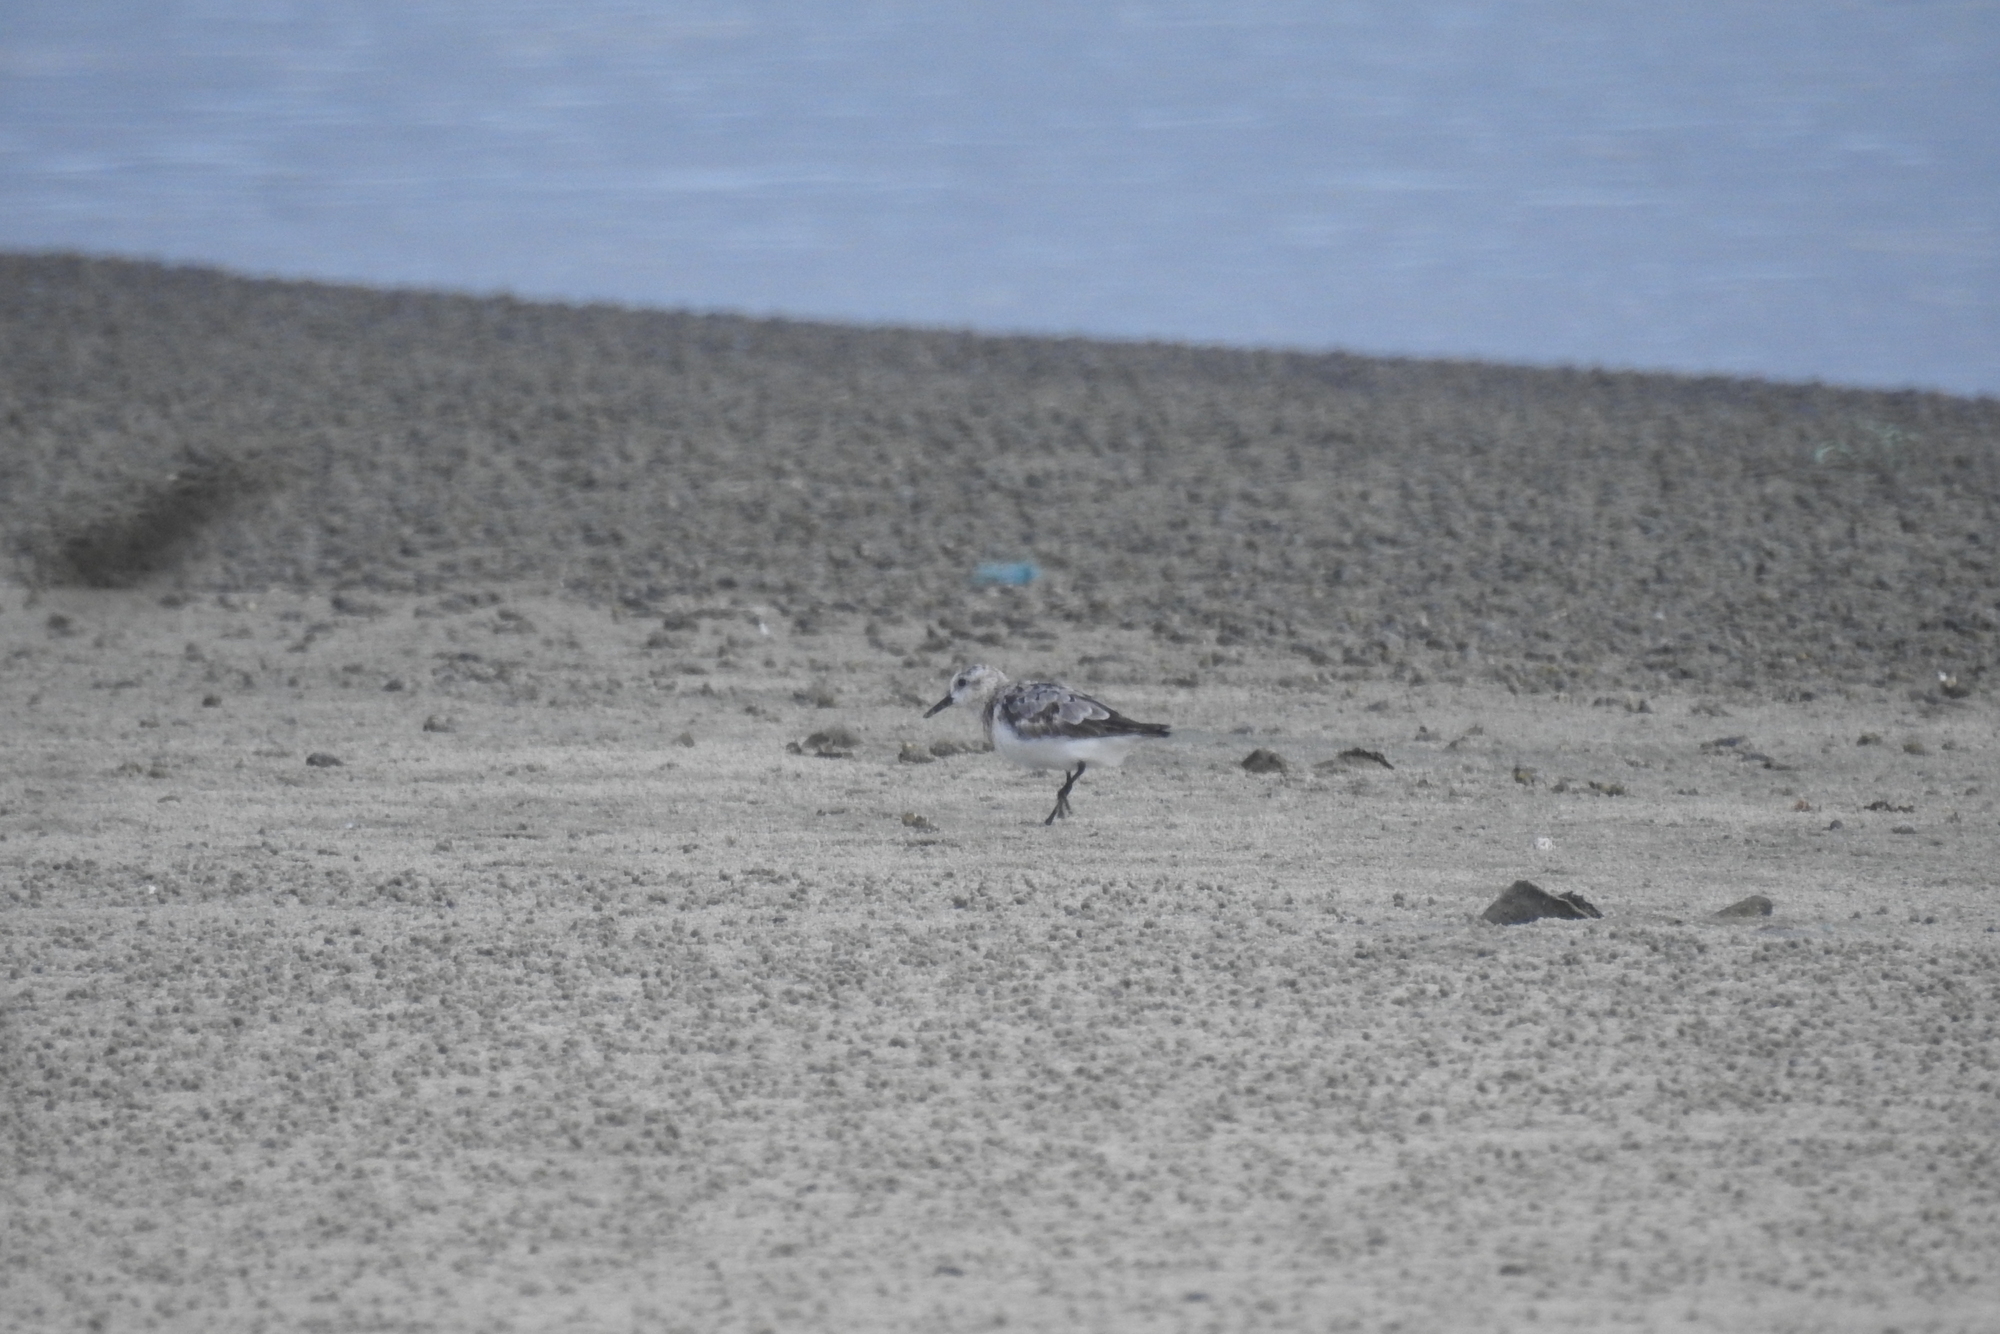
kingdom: Animalia
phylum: Chordata
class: Aves
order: Charadriiformes
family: Scolopacidae
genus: Calidris
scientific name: Calidris alba
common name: Sanderling
